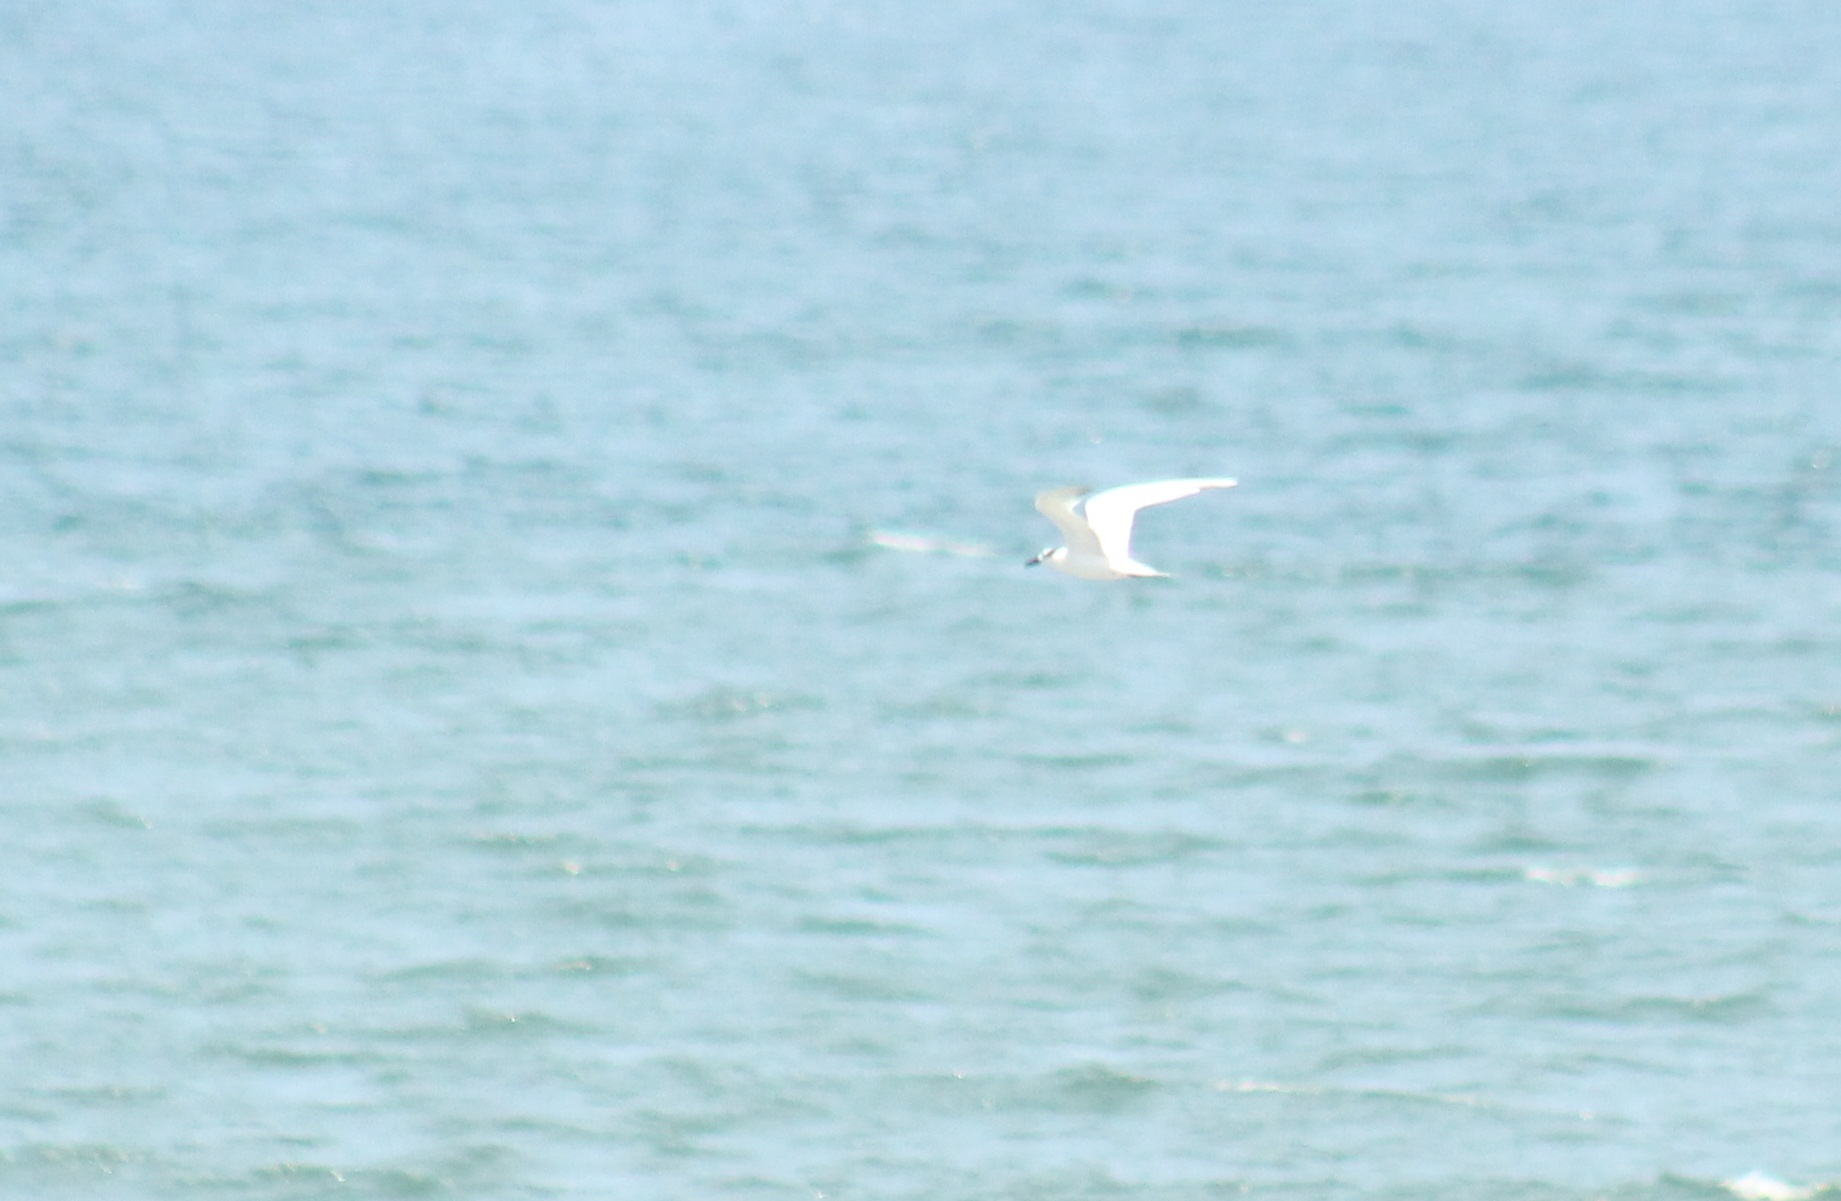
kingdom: Animalia
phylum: Chordata
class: Aves
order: Charadriiformes
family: Laridae
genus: Thalasseus
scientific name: Thalasseus sandvicensis
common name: Sandwich tern
